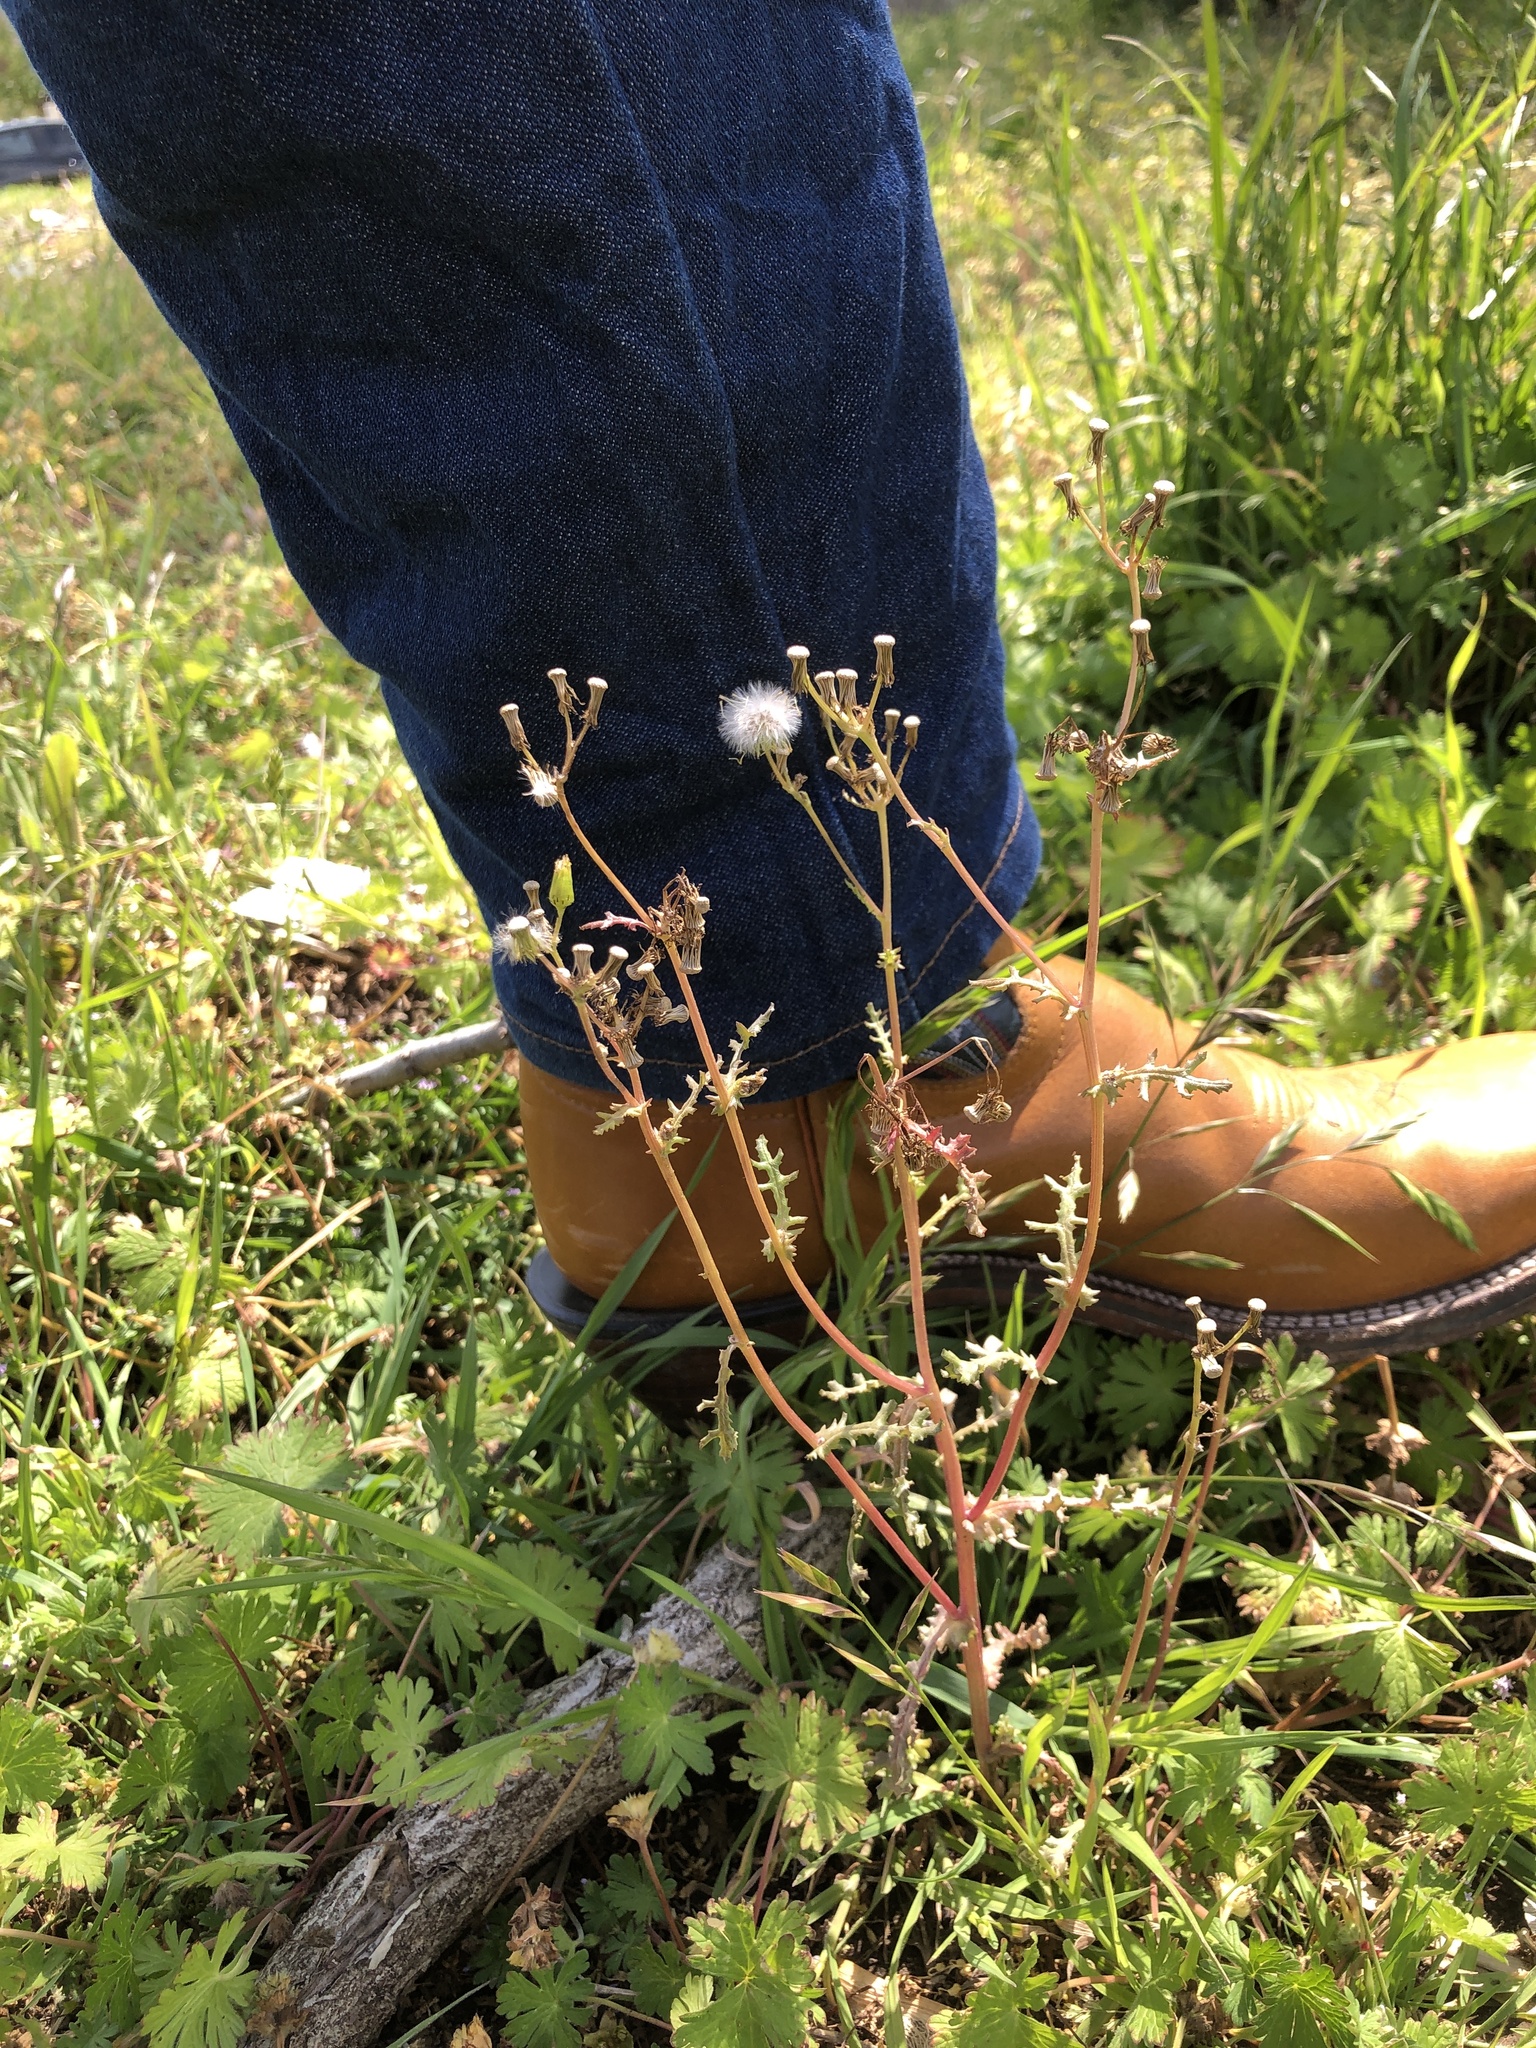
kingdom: Plantae
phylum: Tracheophyta
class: Magnoliopsida
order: Asterales
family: Asteraceae
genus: Senecio
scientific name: Senecio vulgaris
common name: Old-man-in-the-spring
